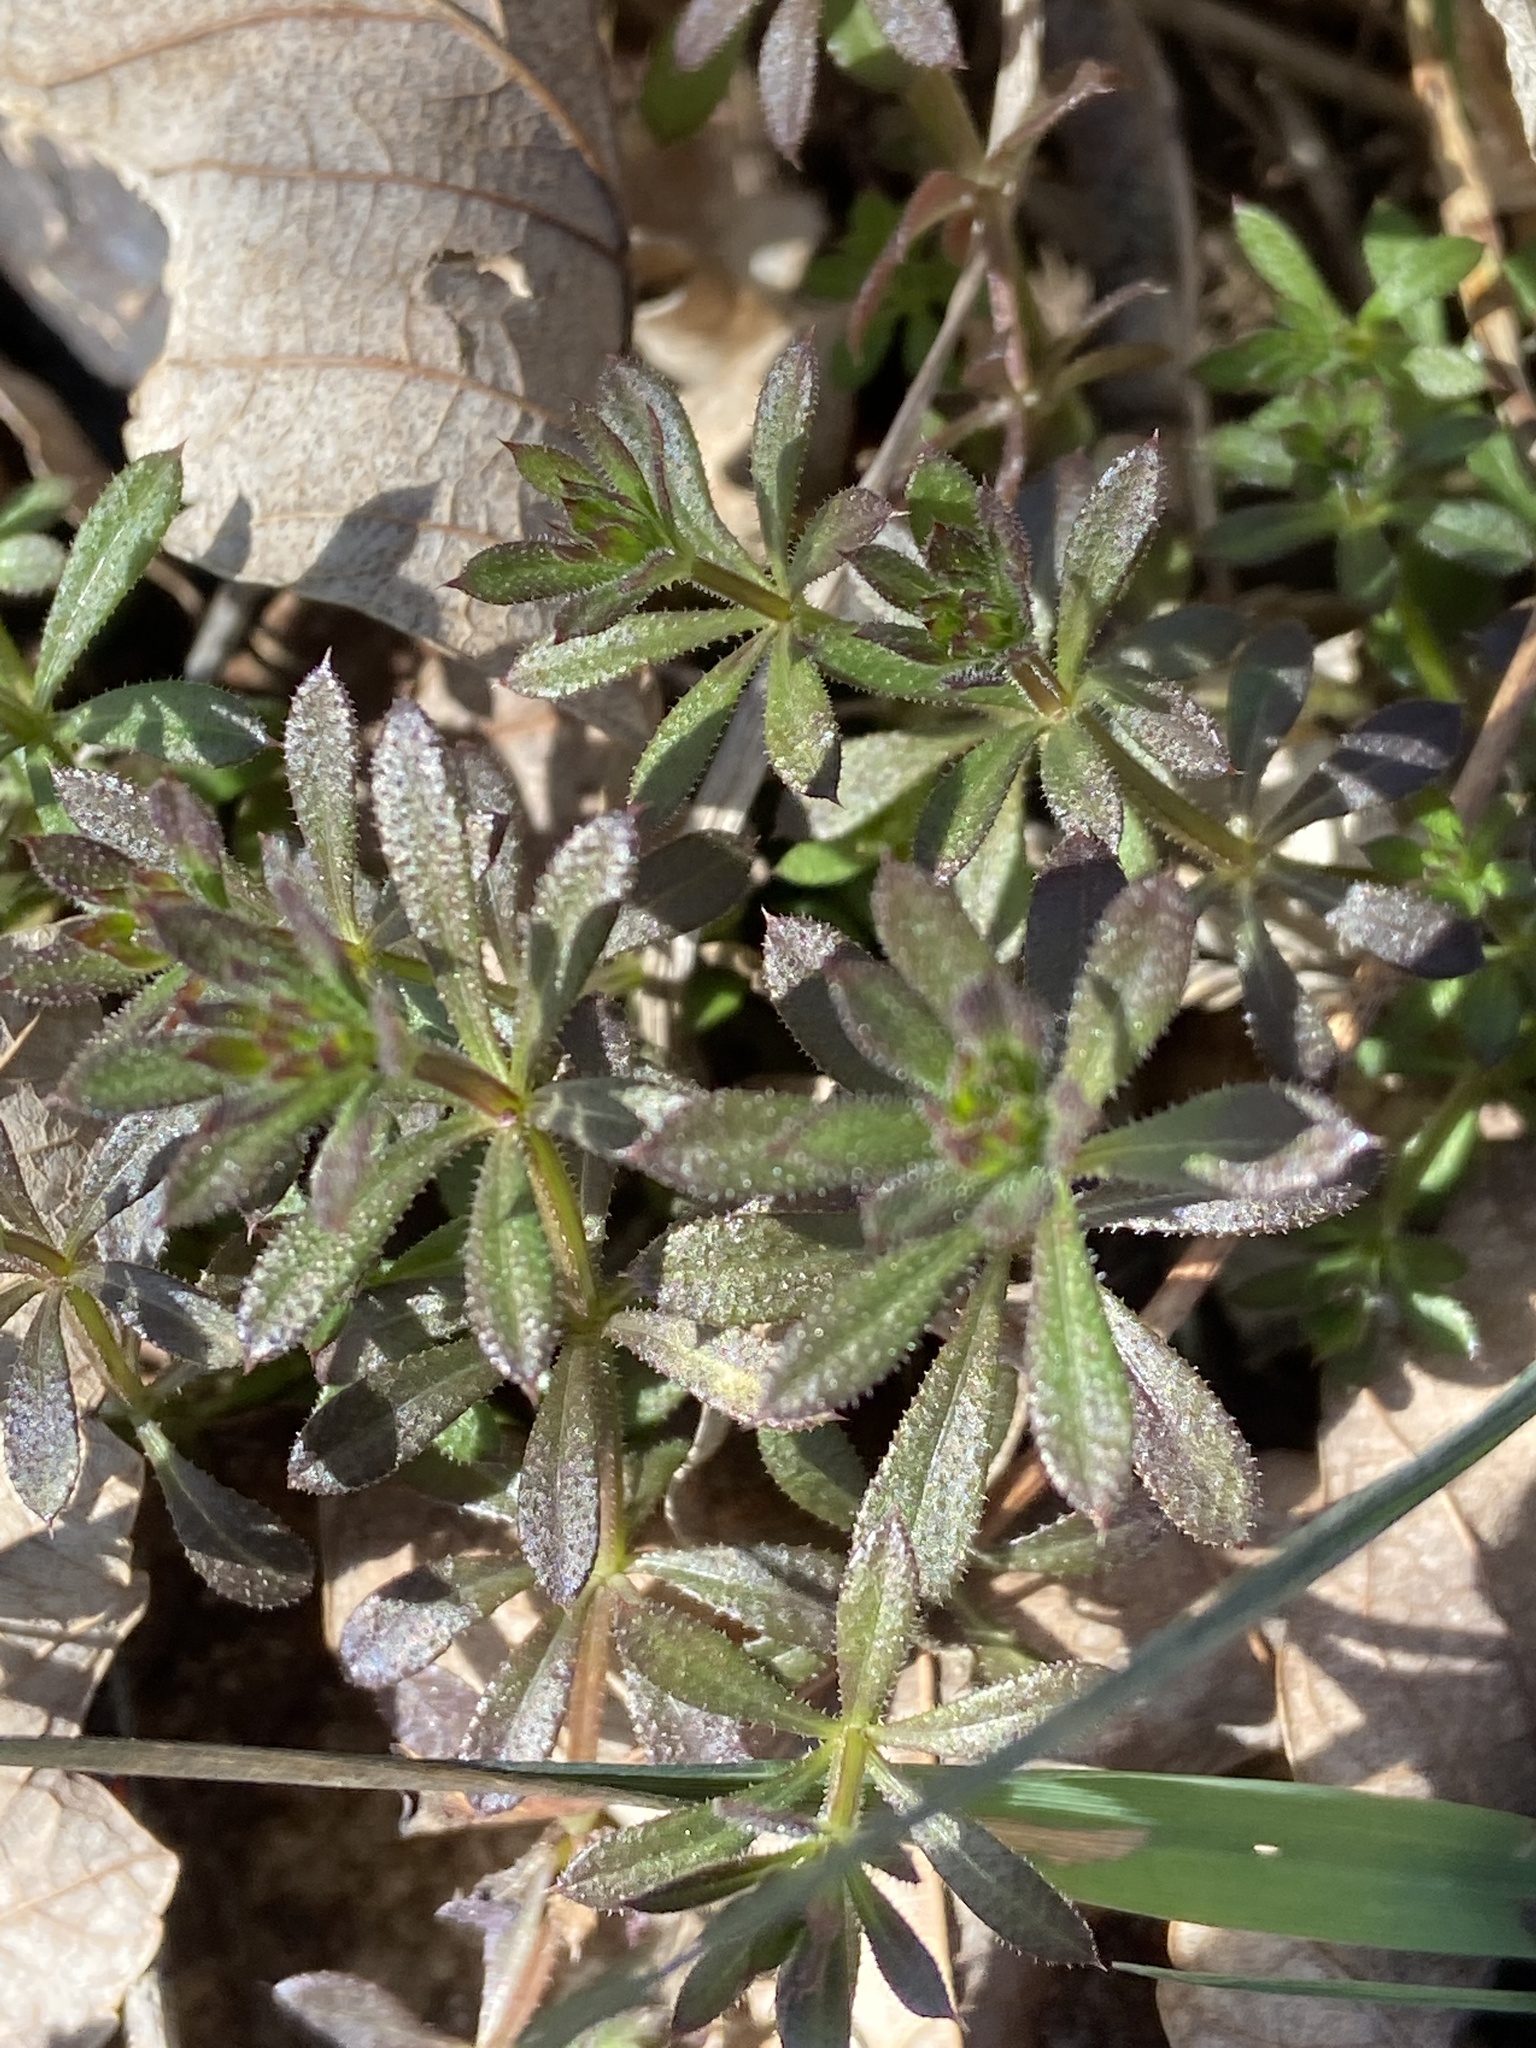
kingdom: Plantae
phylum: Tracheophyta
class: Magnoliopsida
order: Gentianales
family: Rubiaceae
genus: Galium
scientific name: Galium aparine
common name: Cleavers
